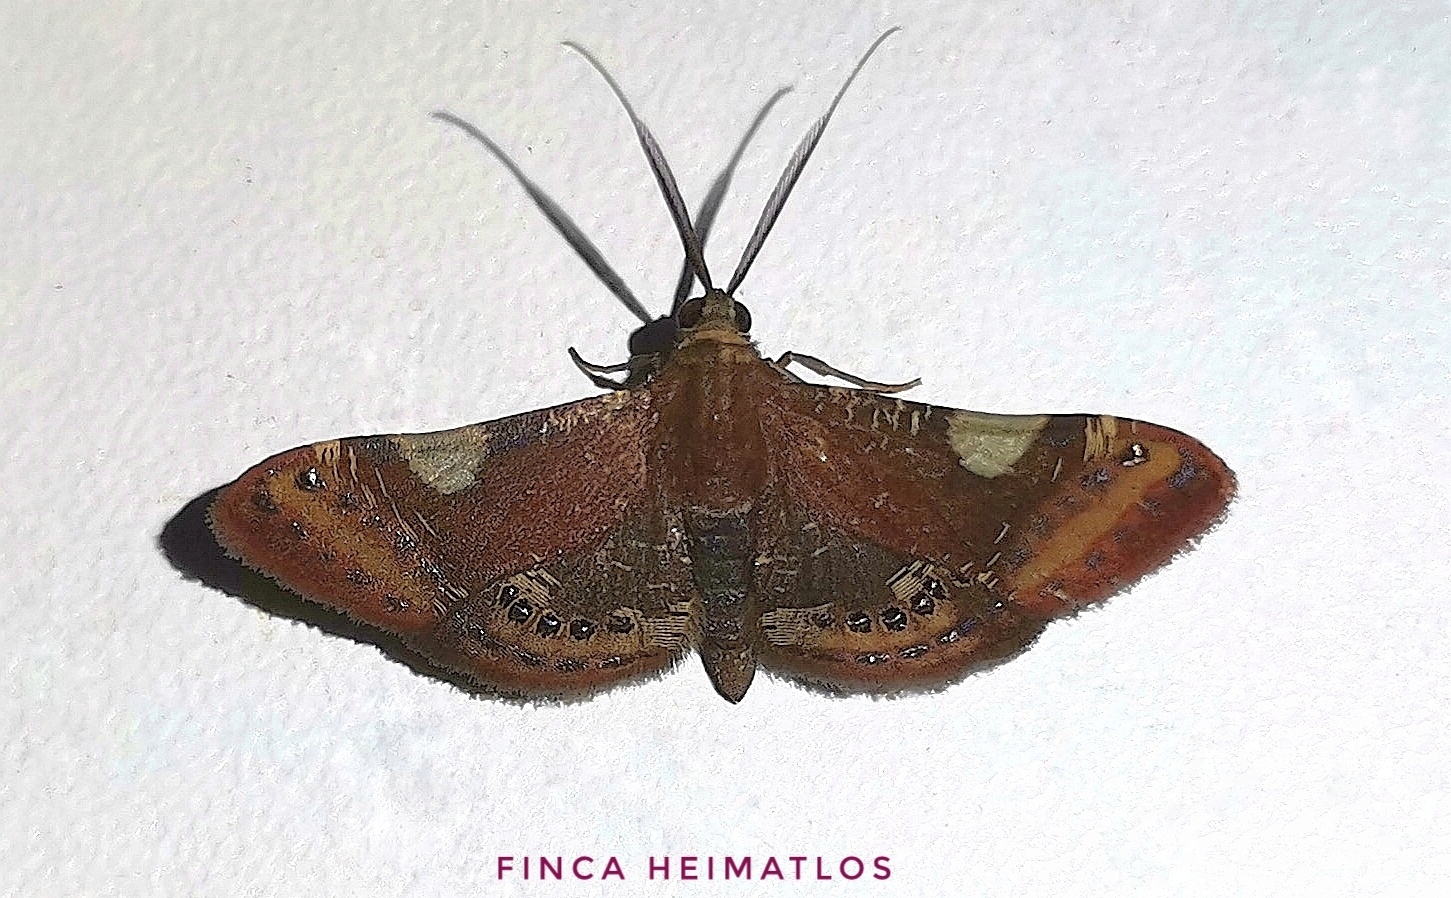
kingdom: Animalia
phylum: Arthropoda
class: Insecta
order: Lepidoptera
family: Geometridae
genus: Aplogompha
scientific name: Aplogompha costimaculata
